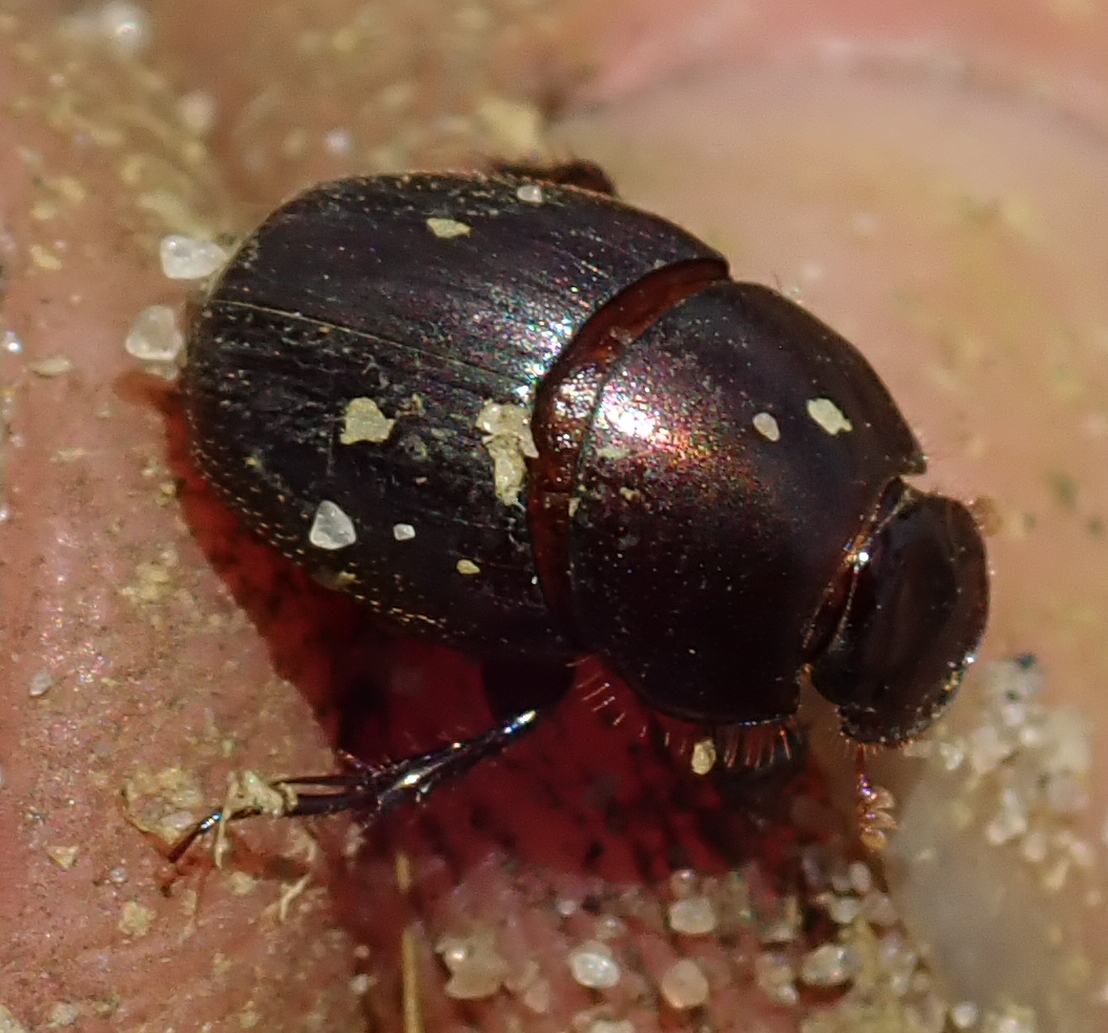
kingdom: Animalia
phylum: Arthropoda
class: Insecta
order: Coleoptera
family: Scarabaeidae
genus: Mimonthophagus
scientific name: Mimonthophagus anomalus
